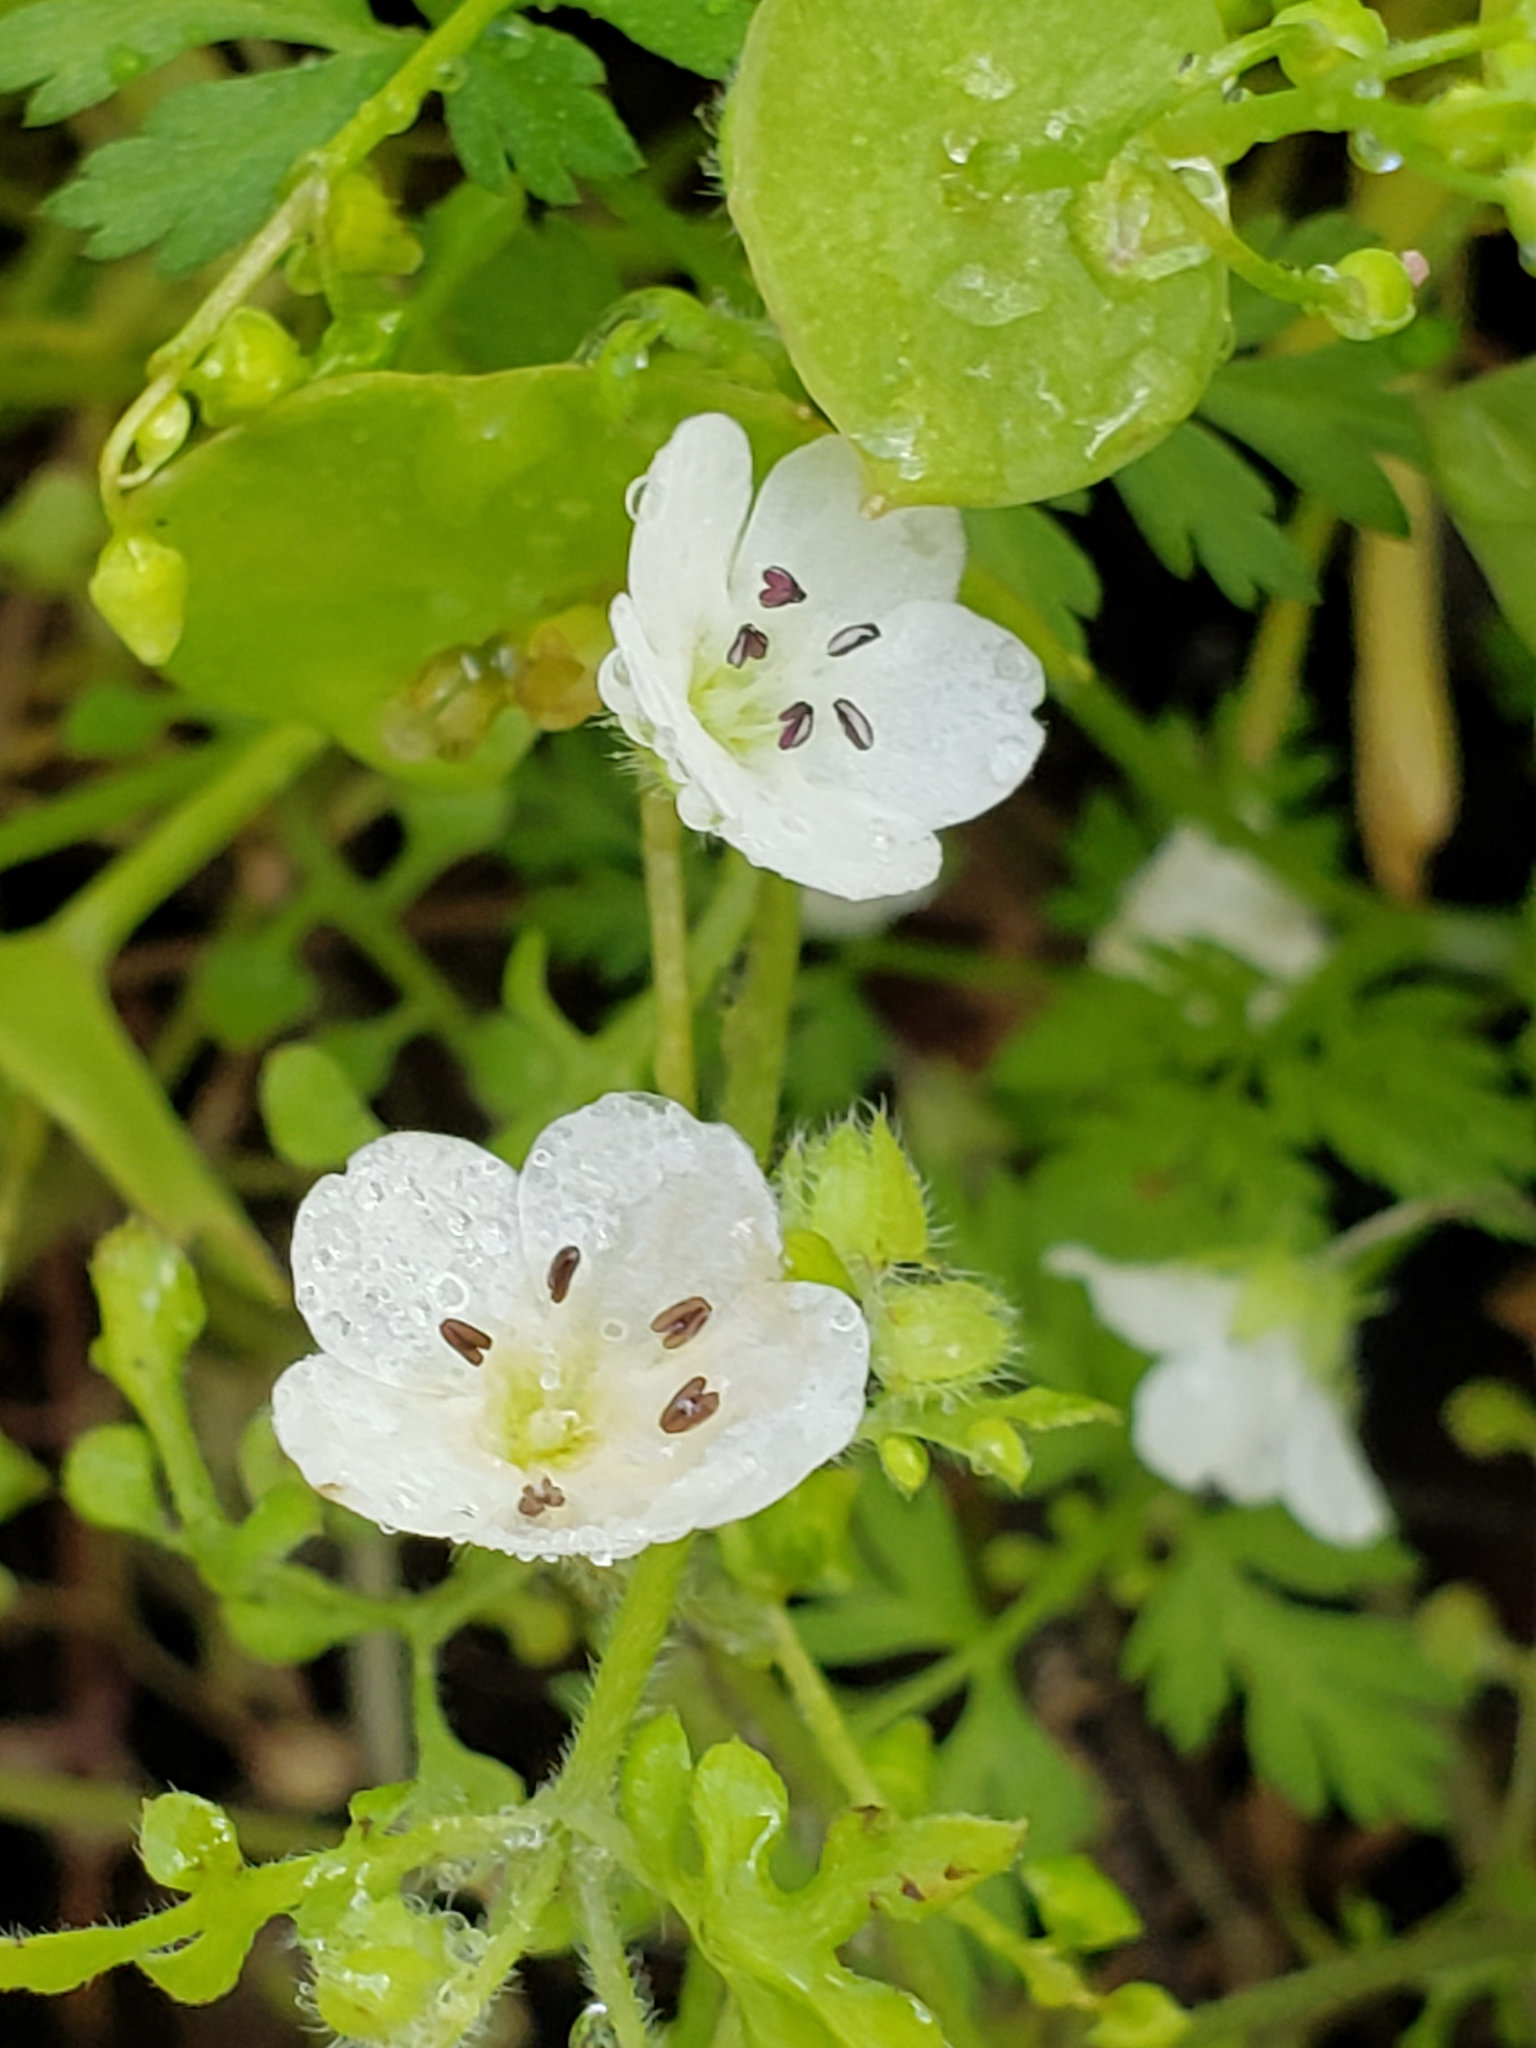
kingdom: Plantae
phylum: Tracheophyta
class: Magnoliopsida
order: Boraginales
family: Hydrophyllaceae
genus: Nemophila
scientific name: Nemophila heterophylla
